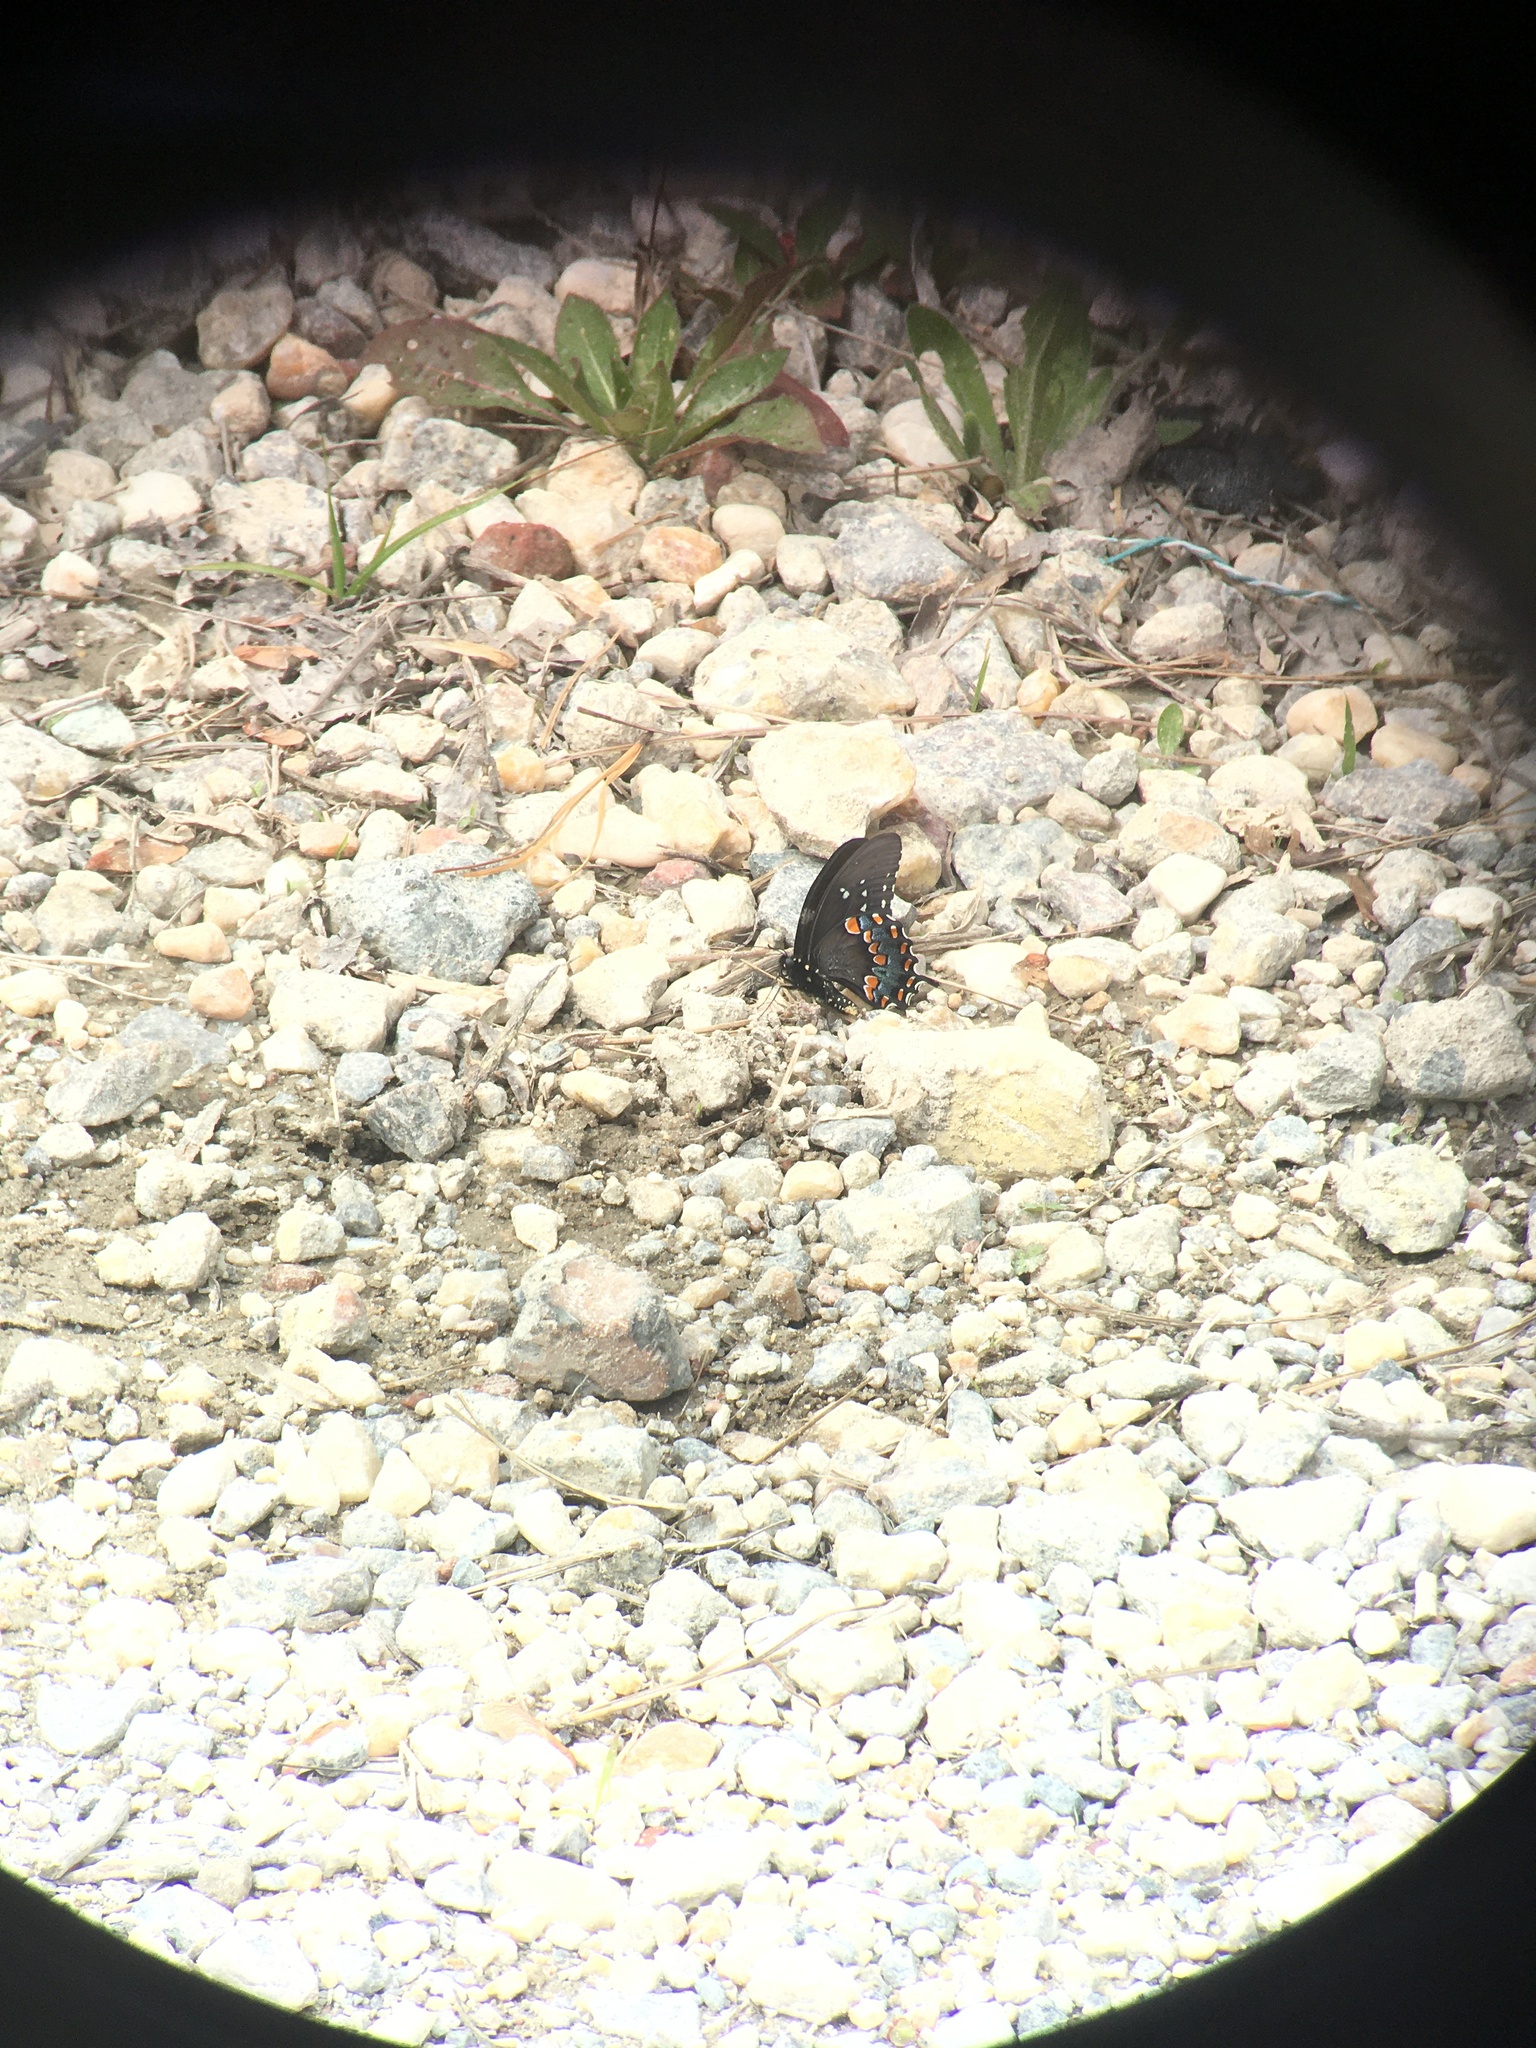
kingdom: Animalia
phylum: Arthropoda
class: Insecta
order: Lepidoptera
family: Papilionidae
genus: Papilio
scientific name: Papilio troilus
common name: Spicebush swallowtail
